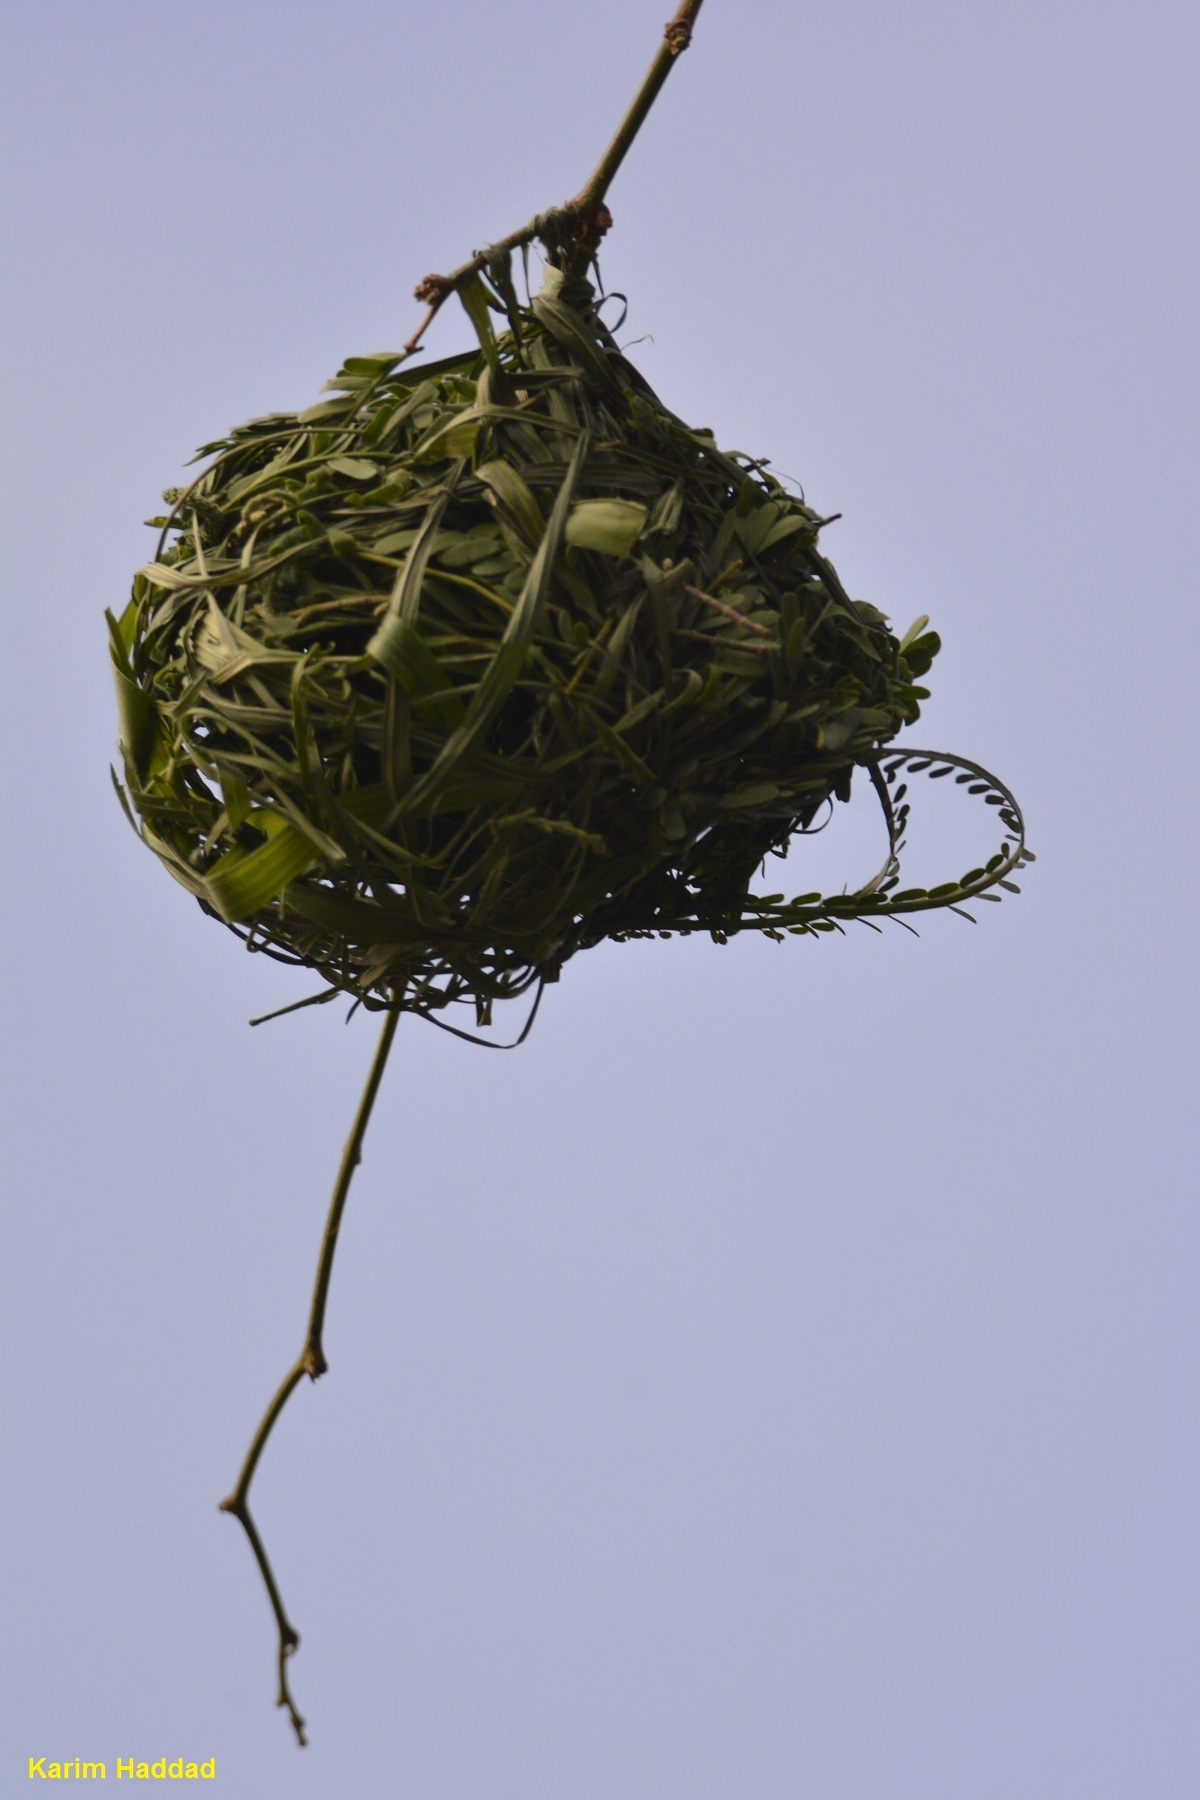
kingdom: Animalia
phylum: Chordata
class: Aves
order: Passeriformes
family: Ploceidae
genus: Ploceus
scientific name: Ploceus vitellinus
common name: Vitelline masked weaver
